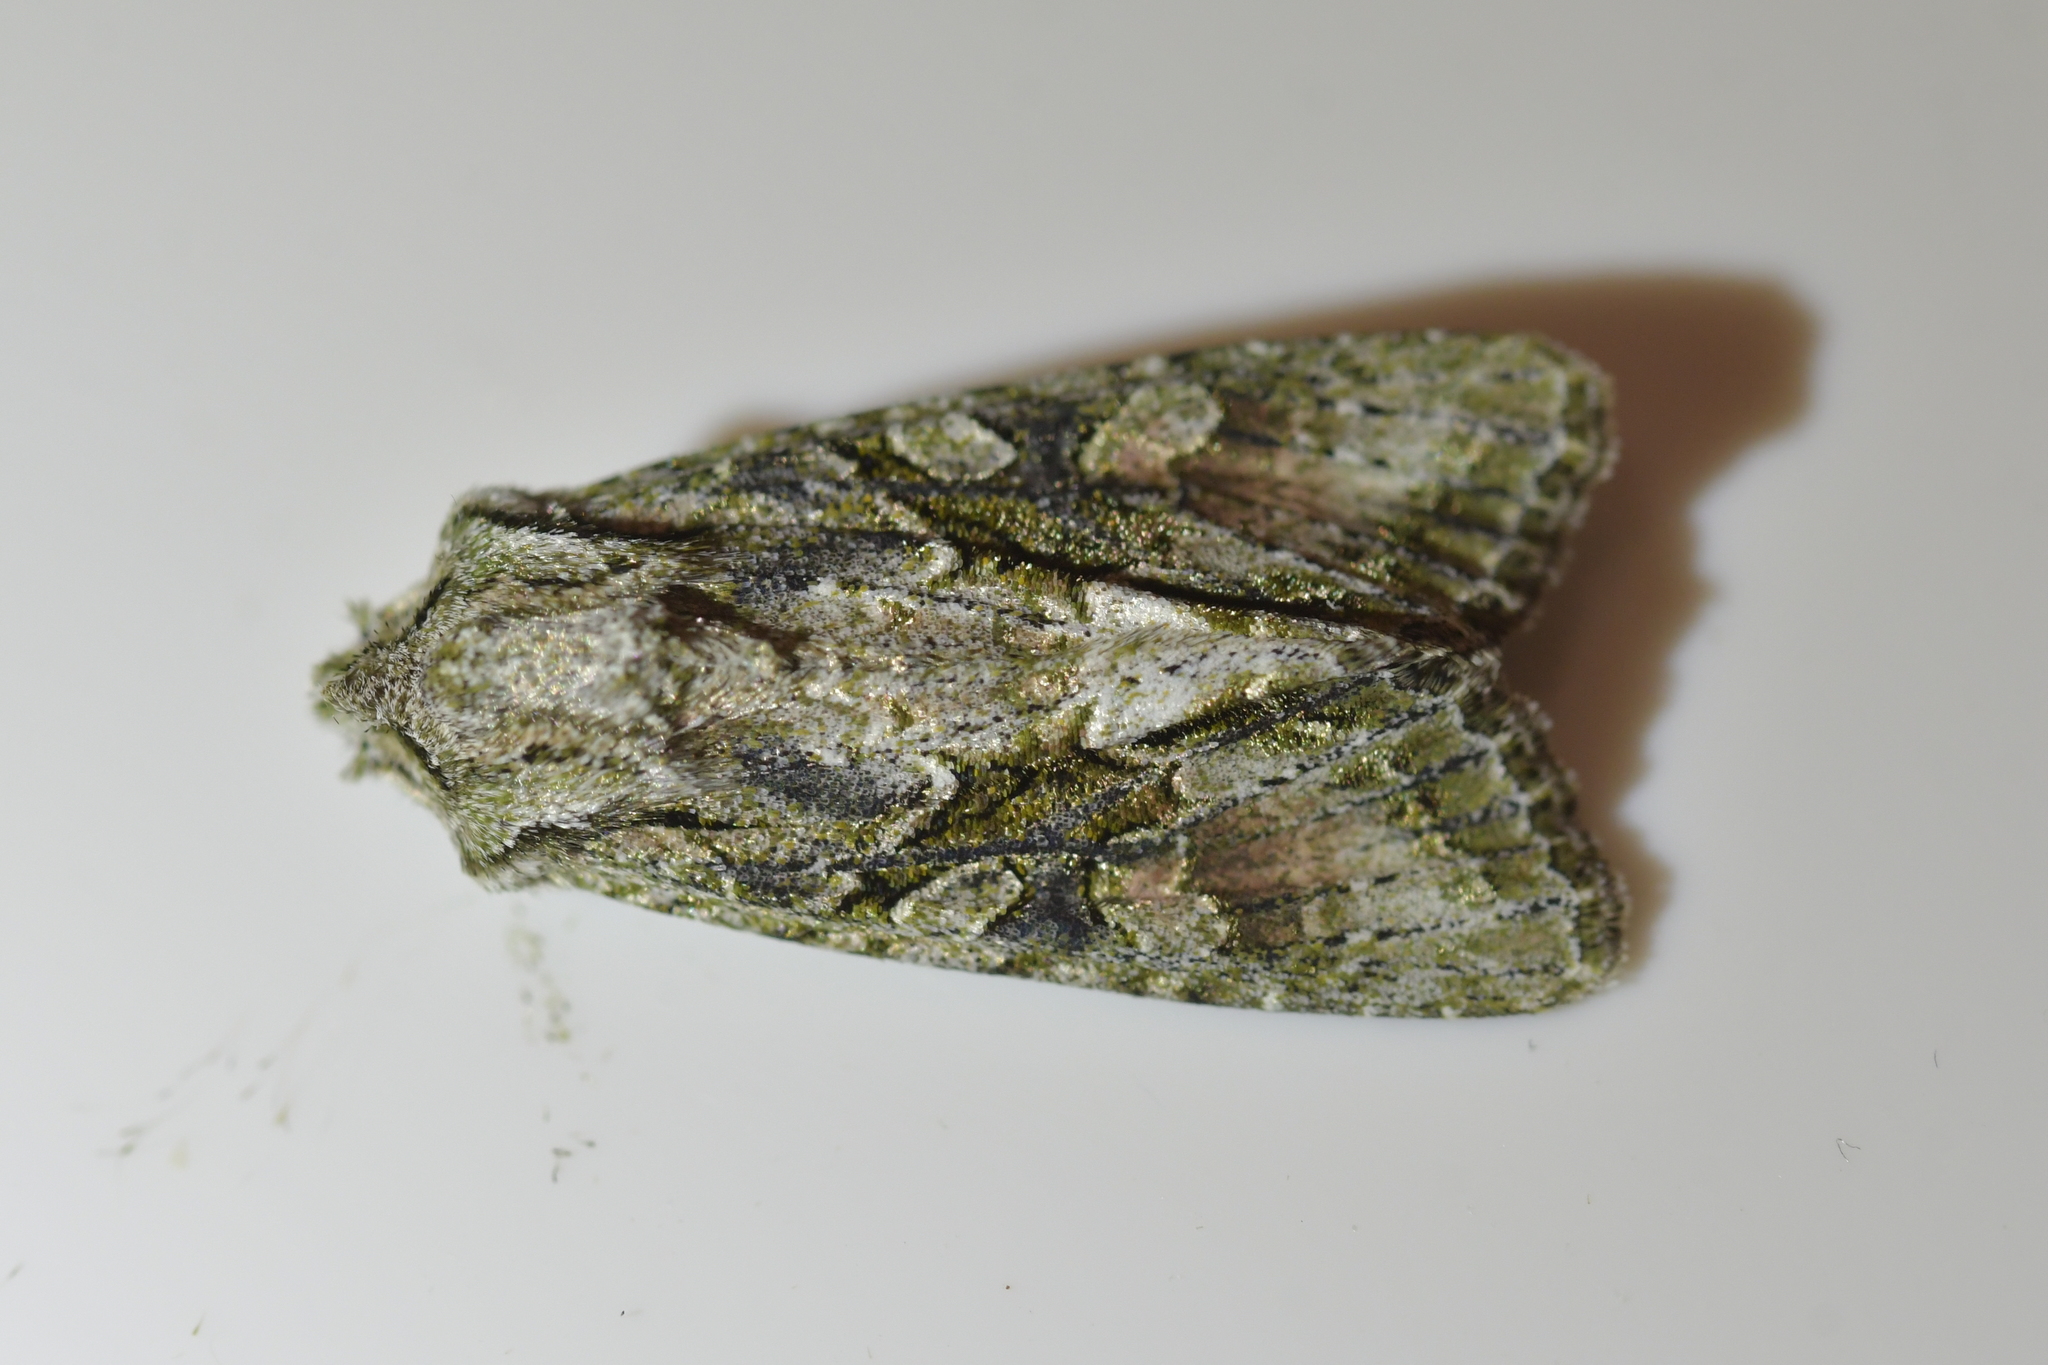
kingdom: Animalia
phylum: Arthropoda
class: Insecta
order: Lepidoptera
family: Noctuidae
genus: Ichneutica
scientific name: Ichneutica mutans
